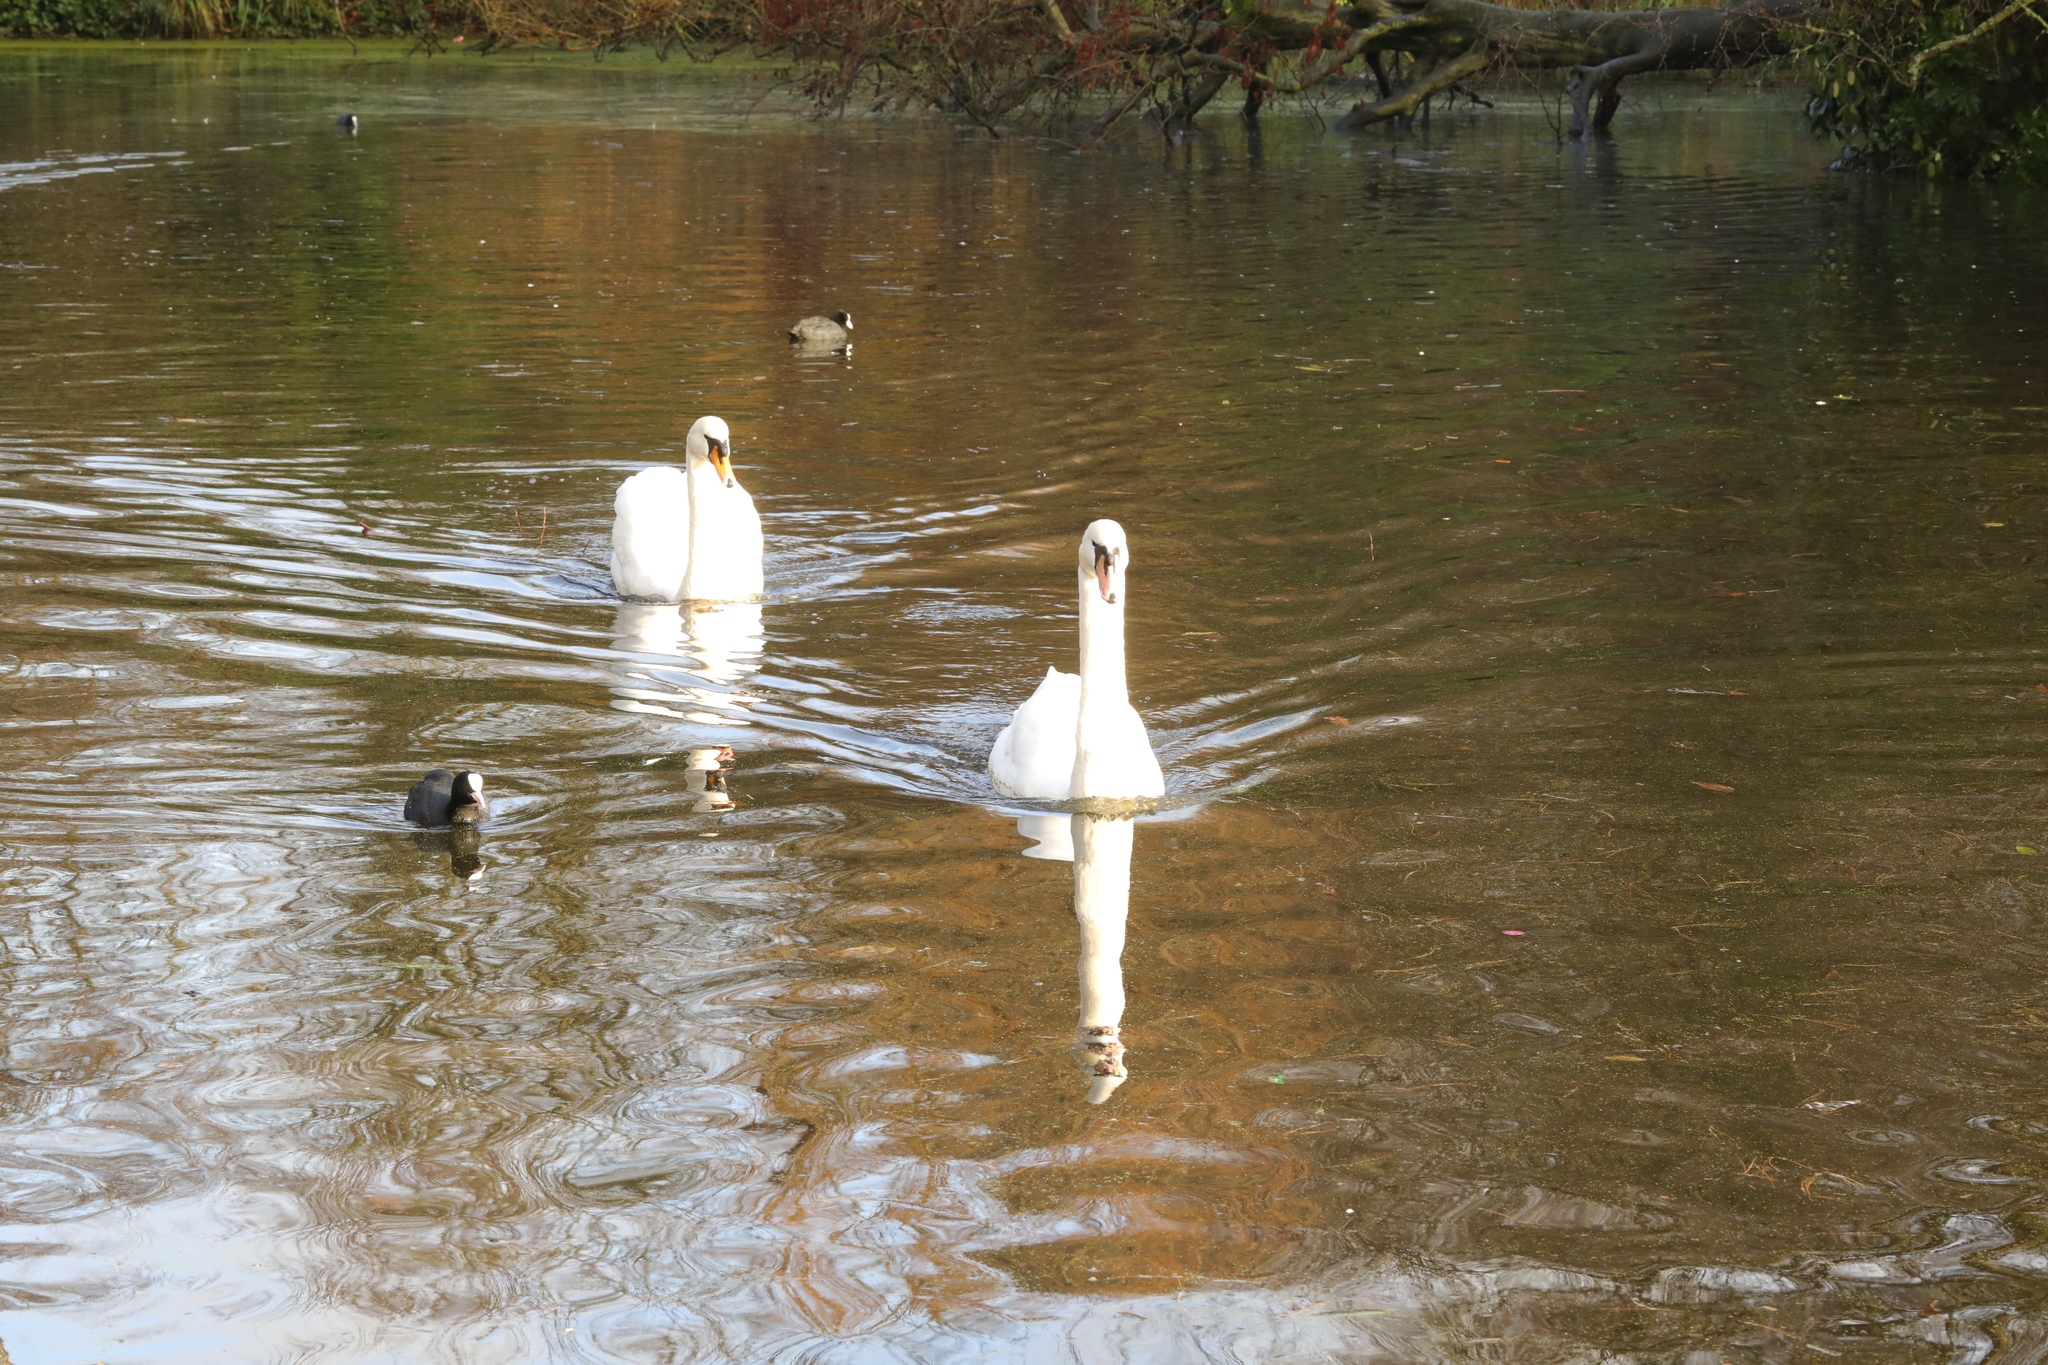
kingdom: Animalia
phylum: Chordata
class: Aves
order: Gruiformes
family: Rallidae
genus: Fulica
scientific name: Fulica atra
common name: Eurasian coot
